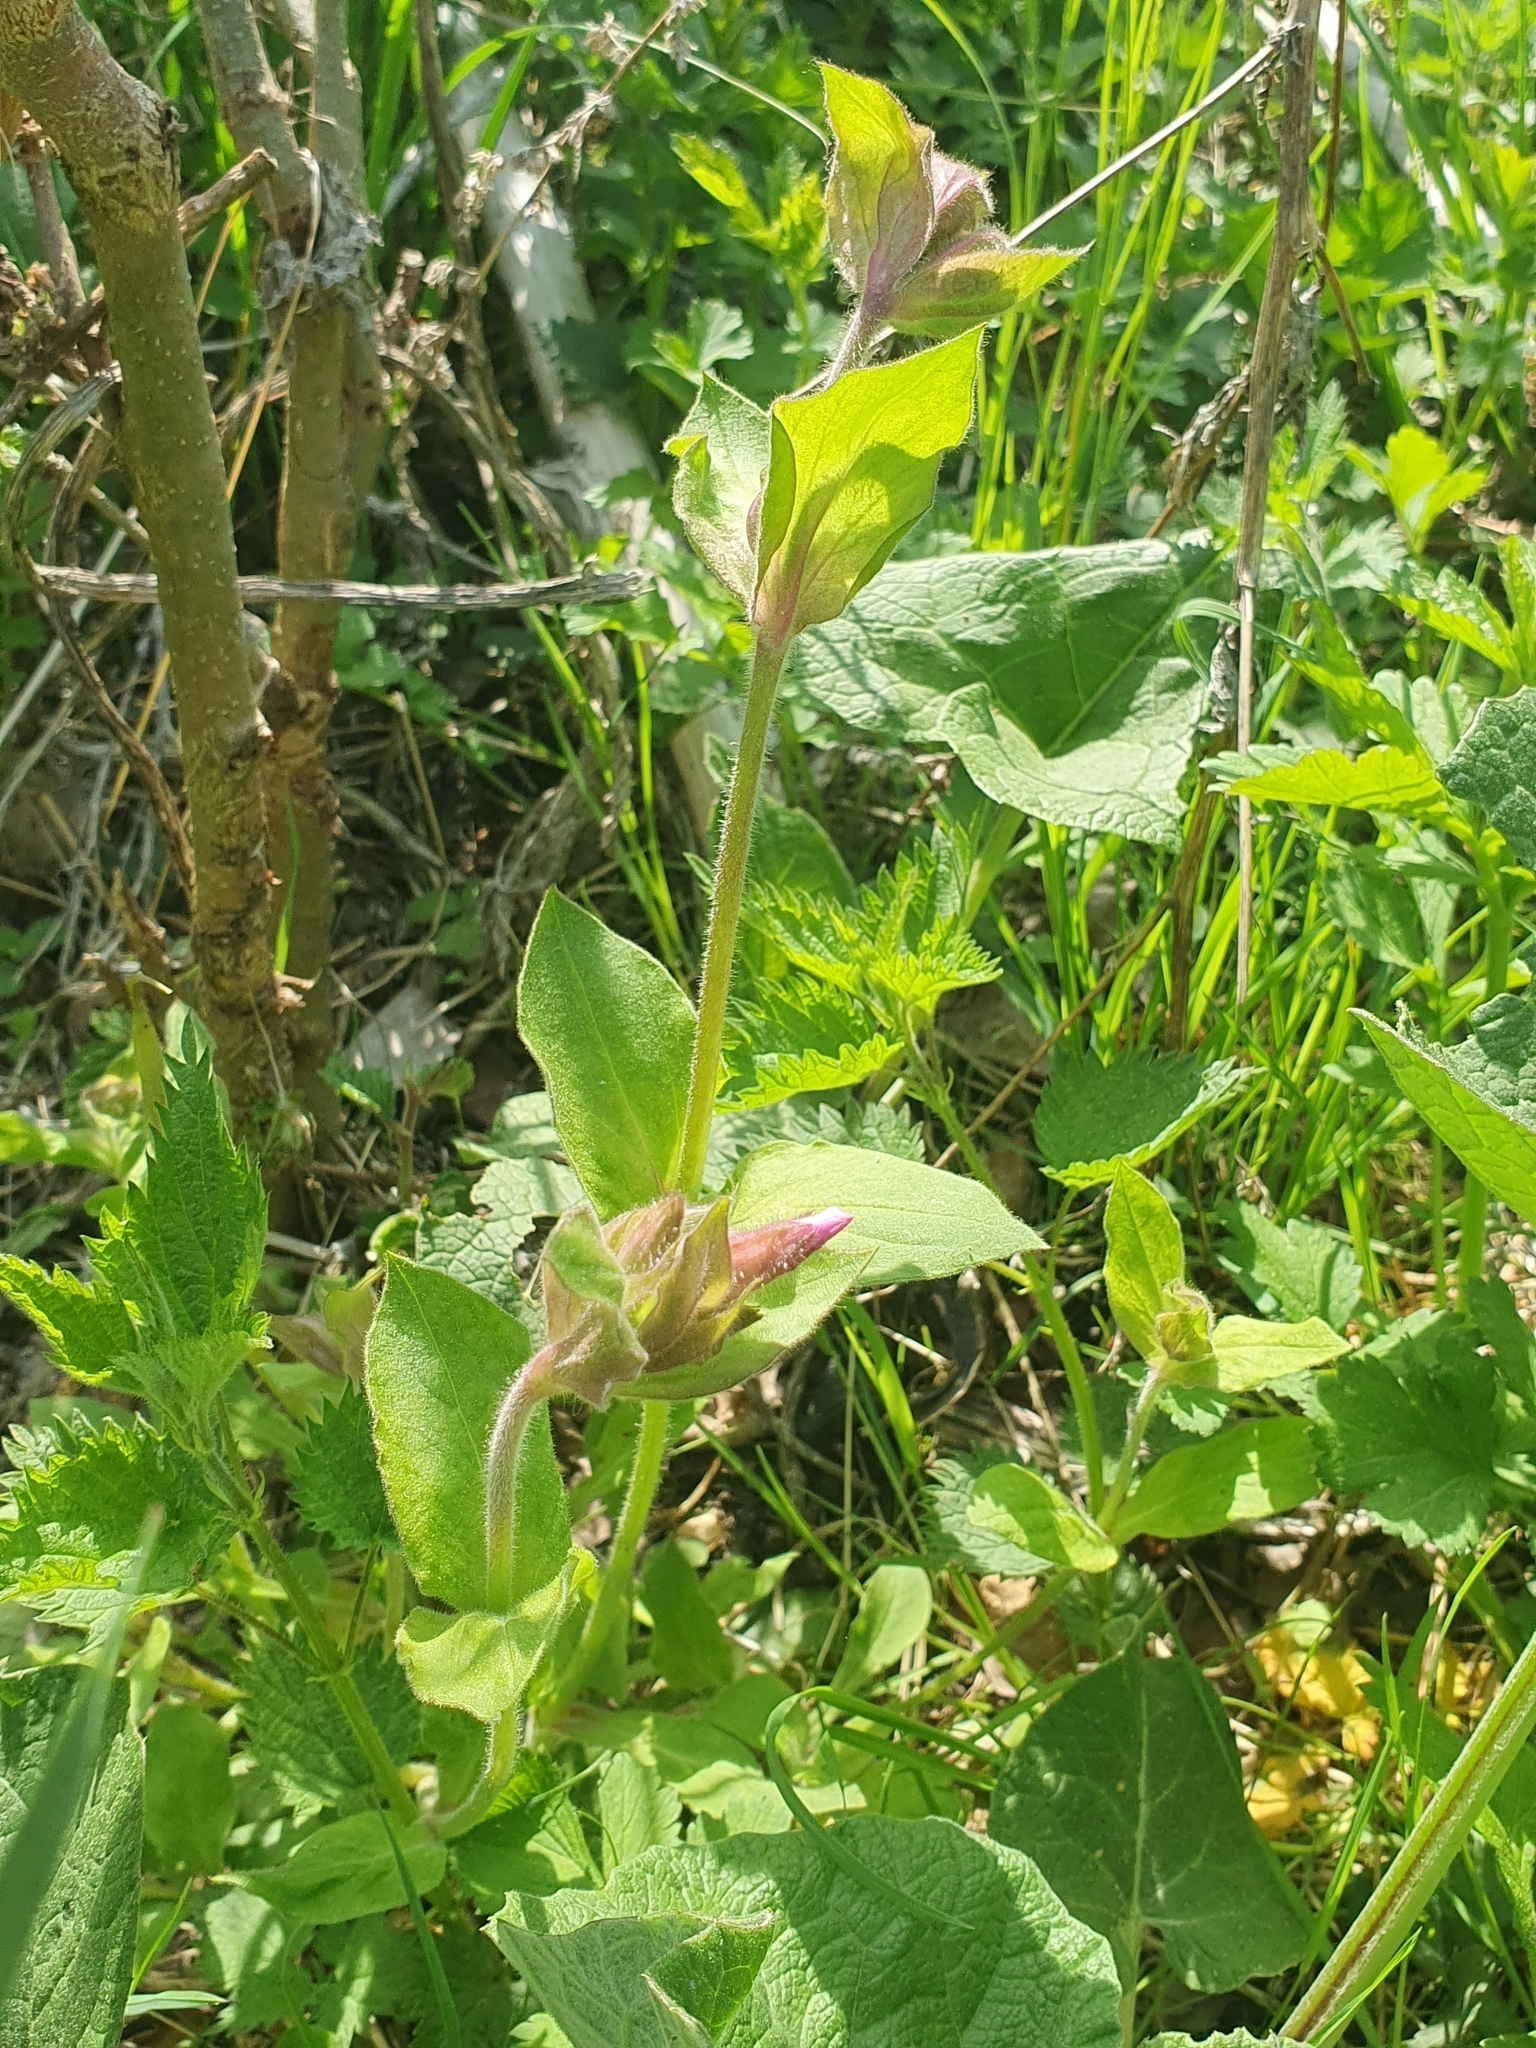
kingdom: Plantae
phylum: Tracheophyta
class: Magnoliopsida
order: Caryophyllales
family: Caryophyllaceae
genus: Silene
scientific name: Silene dioica
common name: Red campion
